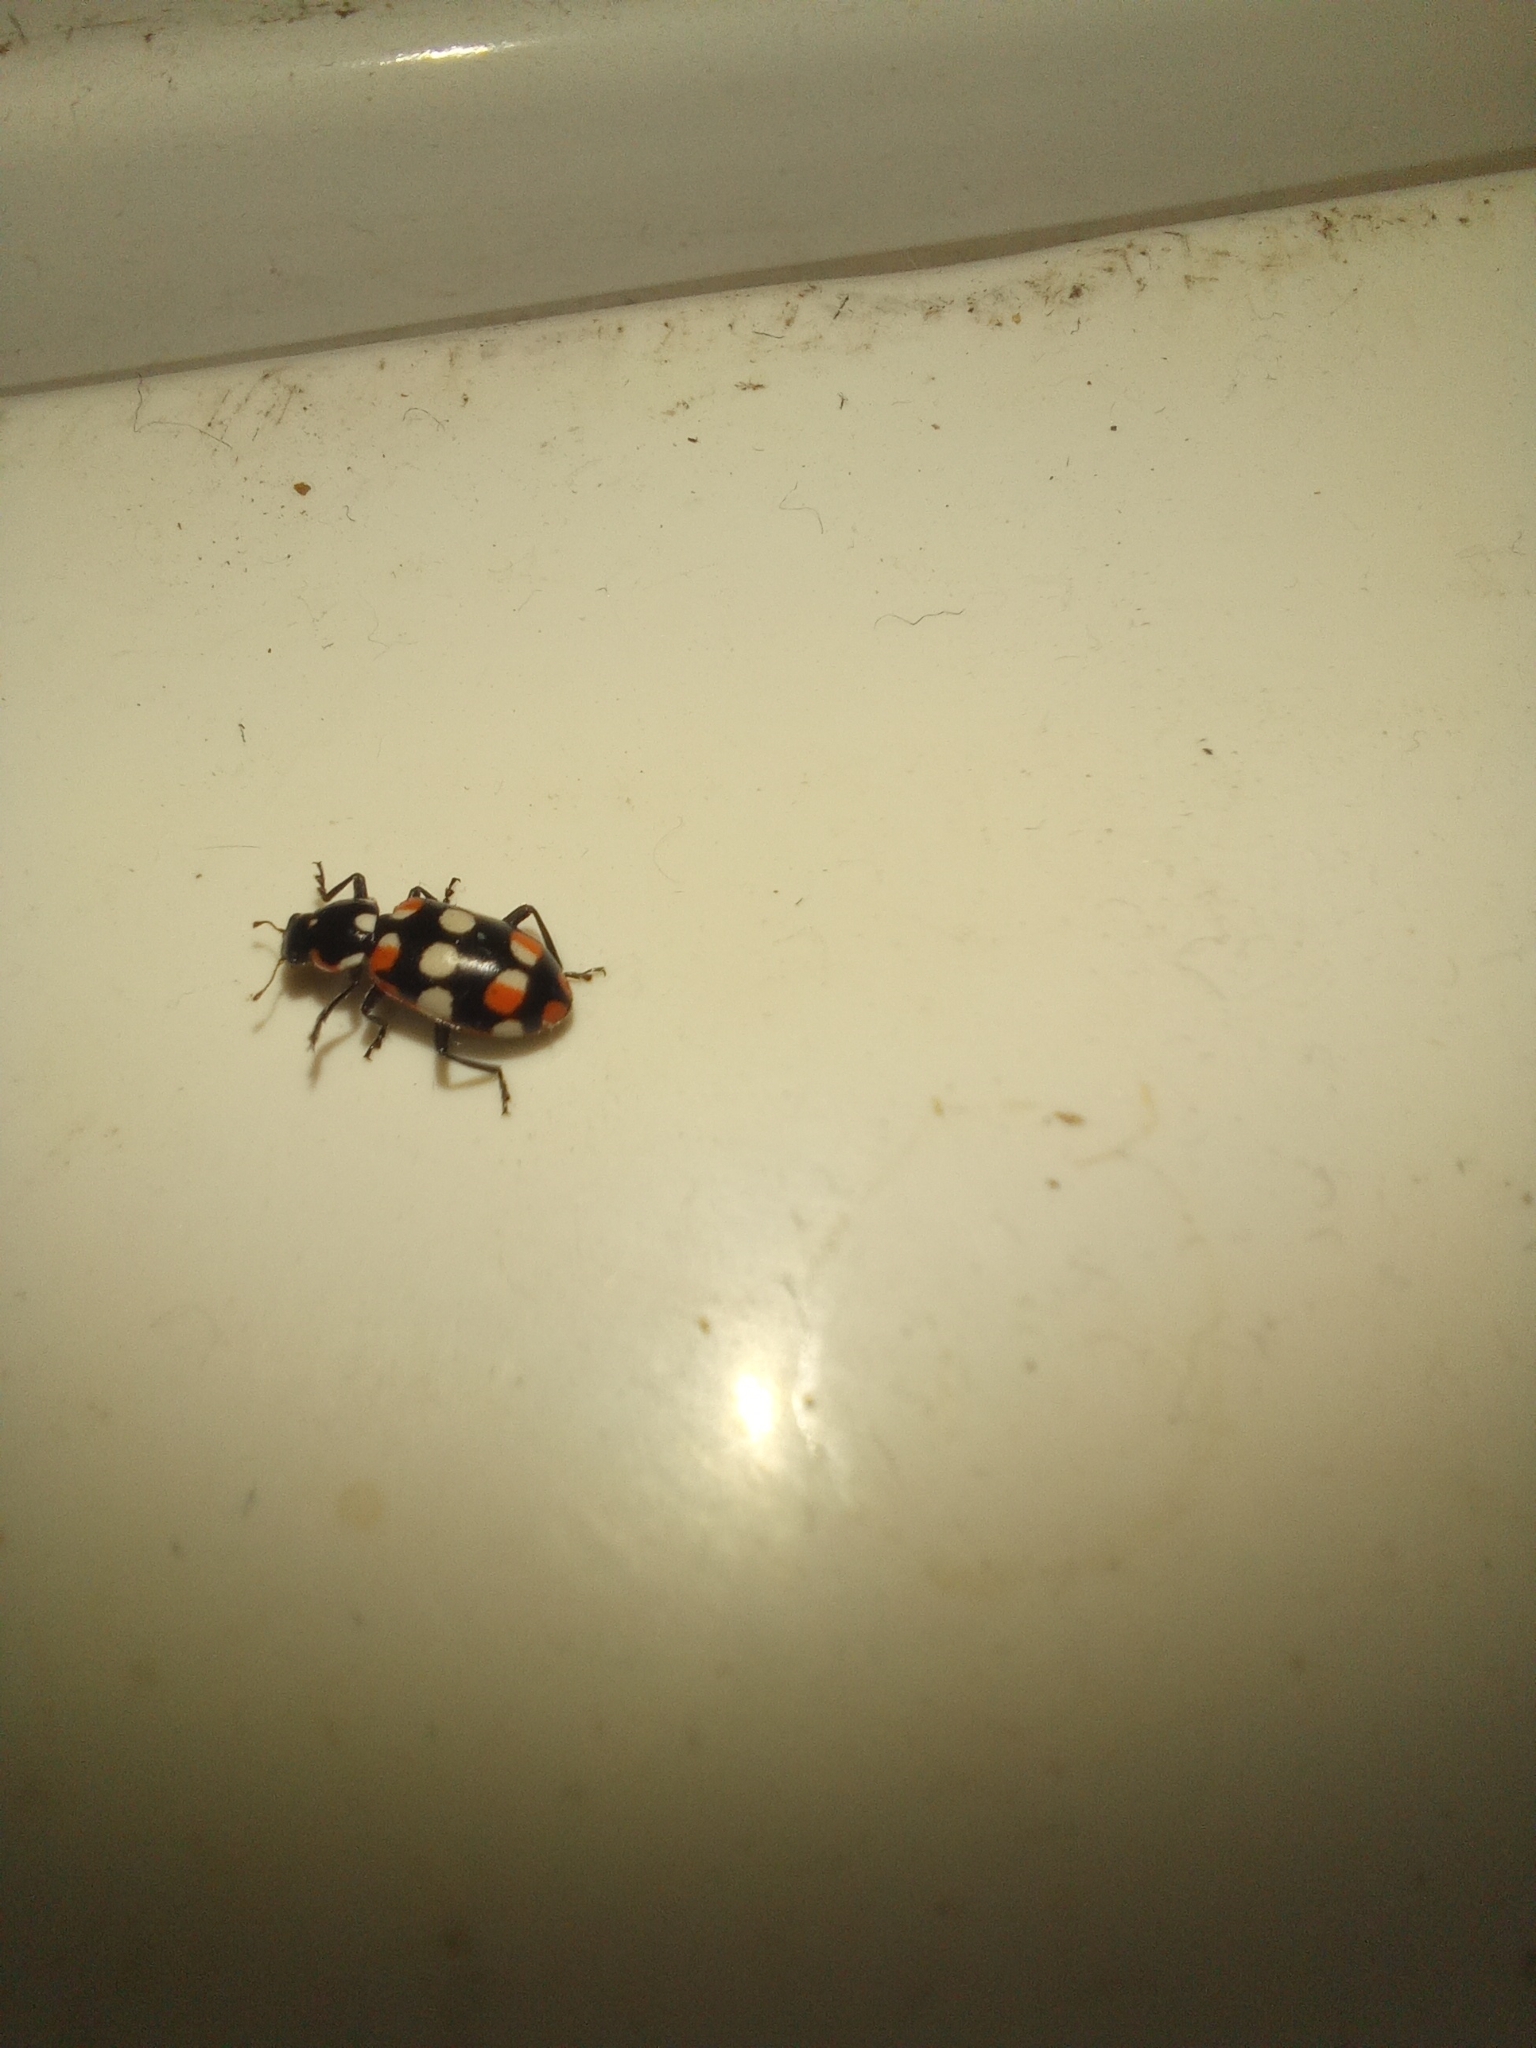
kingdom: Animalia
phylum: Arthropoda
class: Insecta
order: Coleoptera
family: Coccinellidae
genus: Eriopis
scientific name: Eriopis connexa
